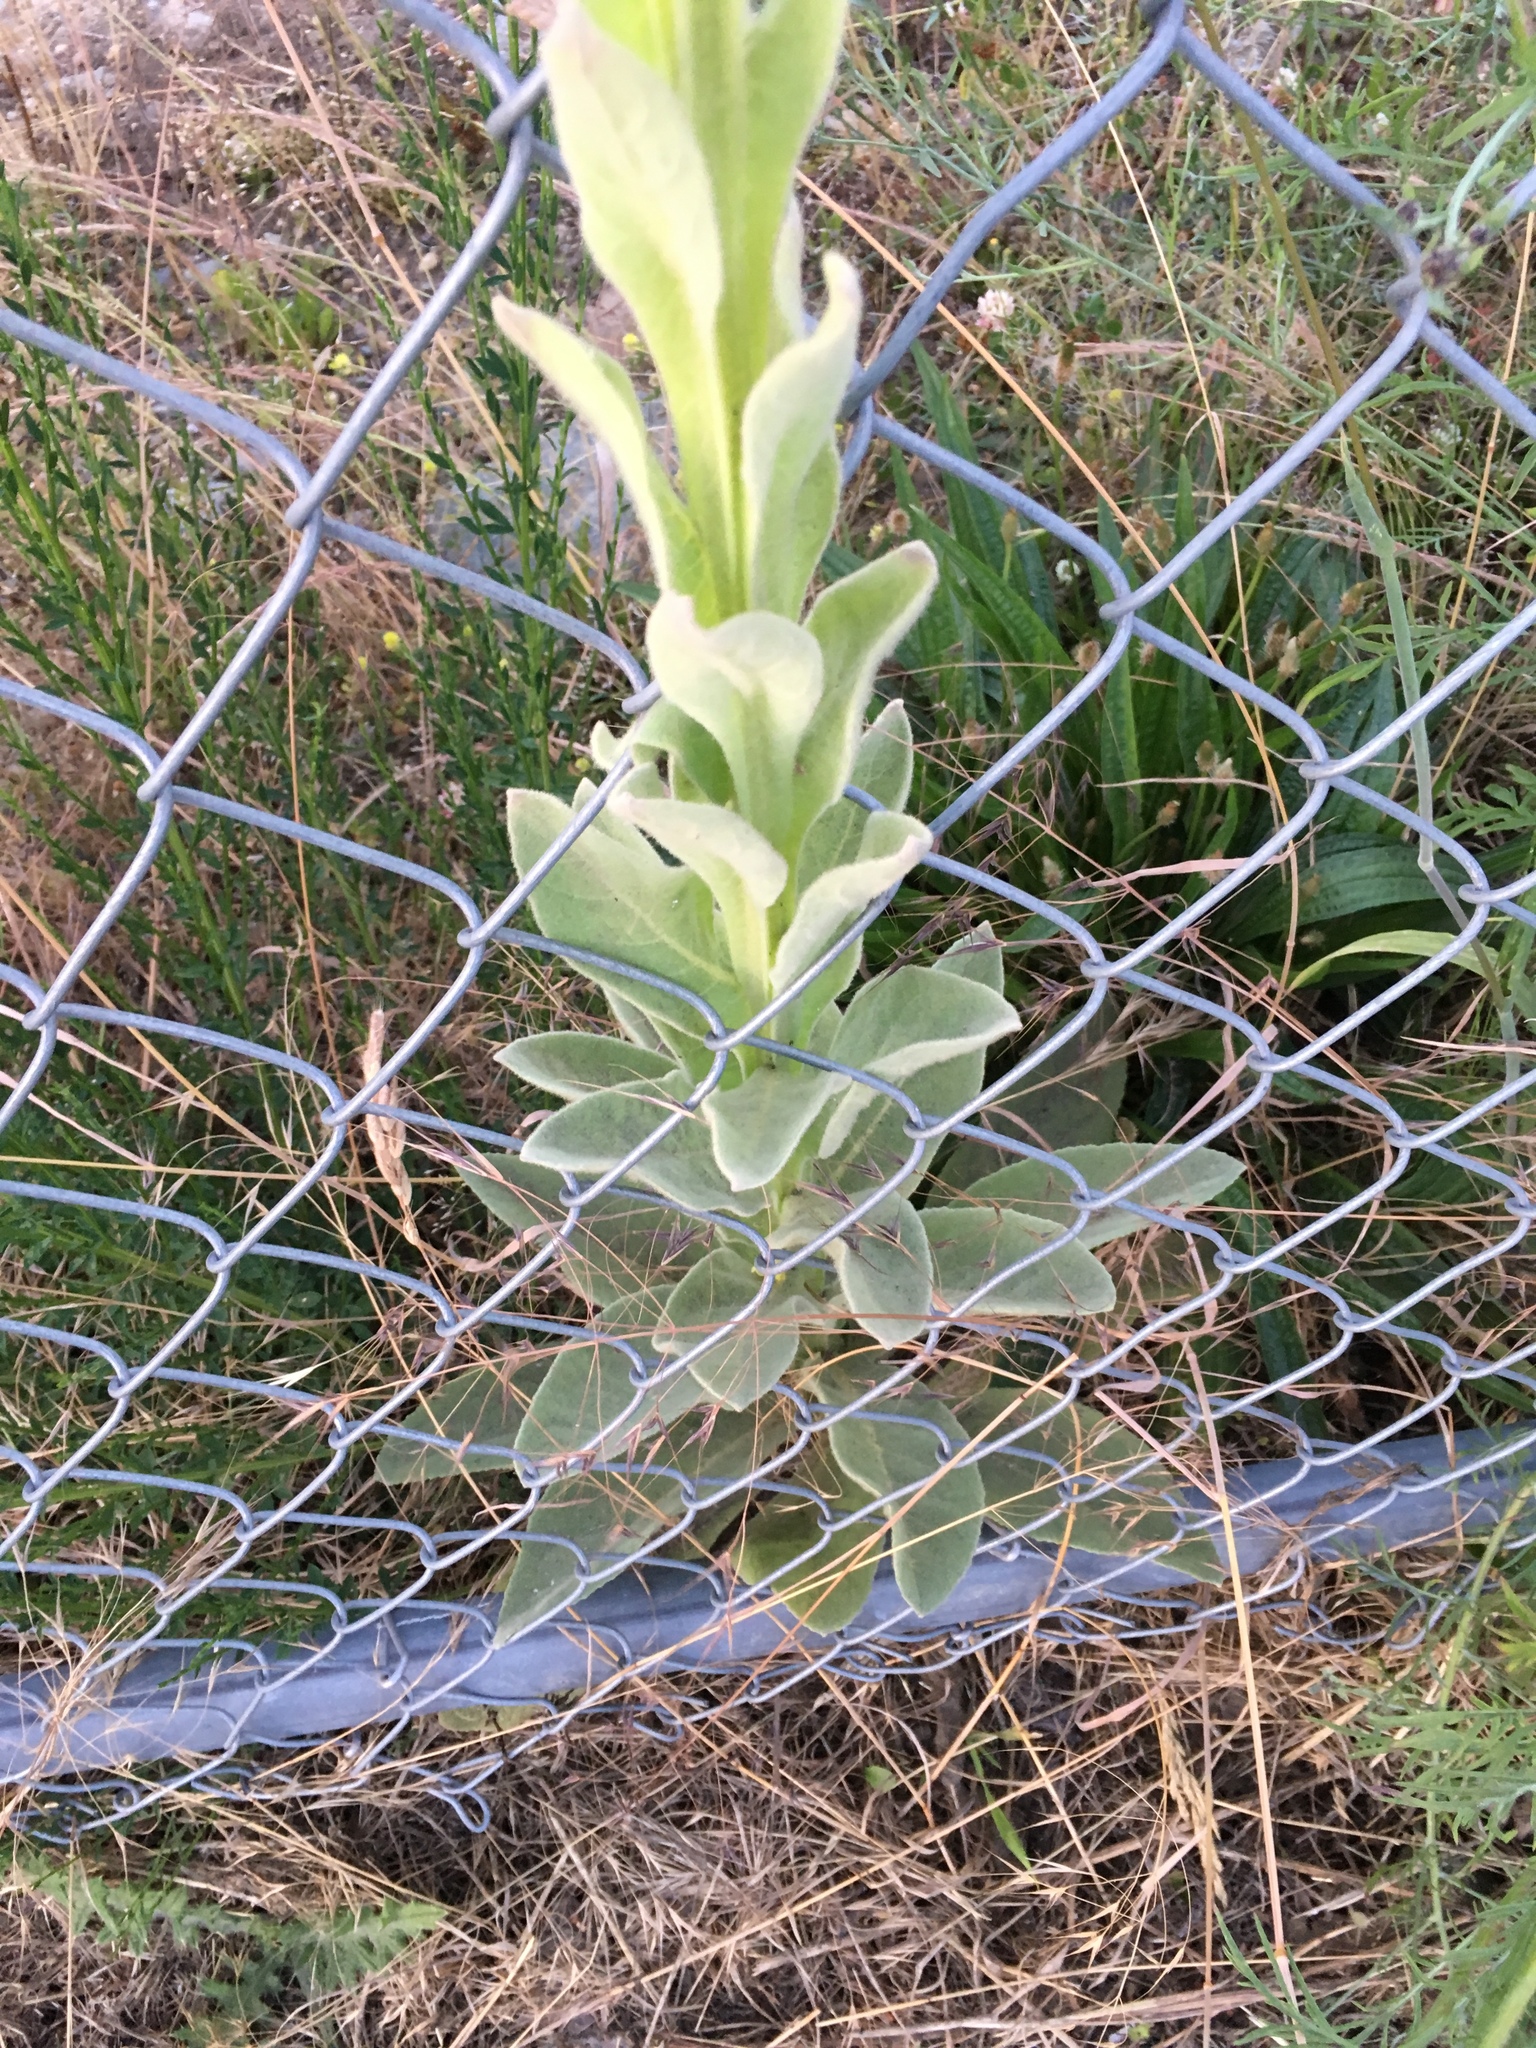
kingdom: Plantae
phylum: Tracheophyta
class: Magnoliopsida
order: Lamiales
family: Scrophulariaceae
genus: Verbascum
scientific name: Verbascum thapsus
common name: Common mullein
